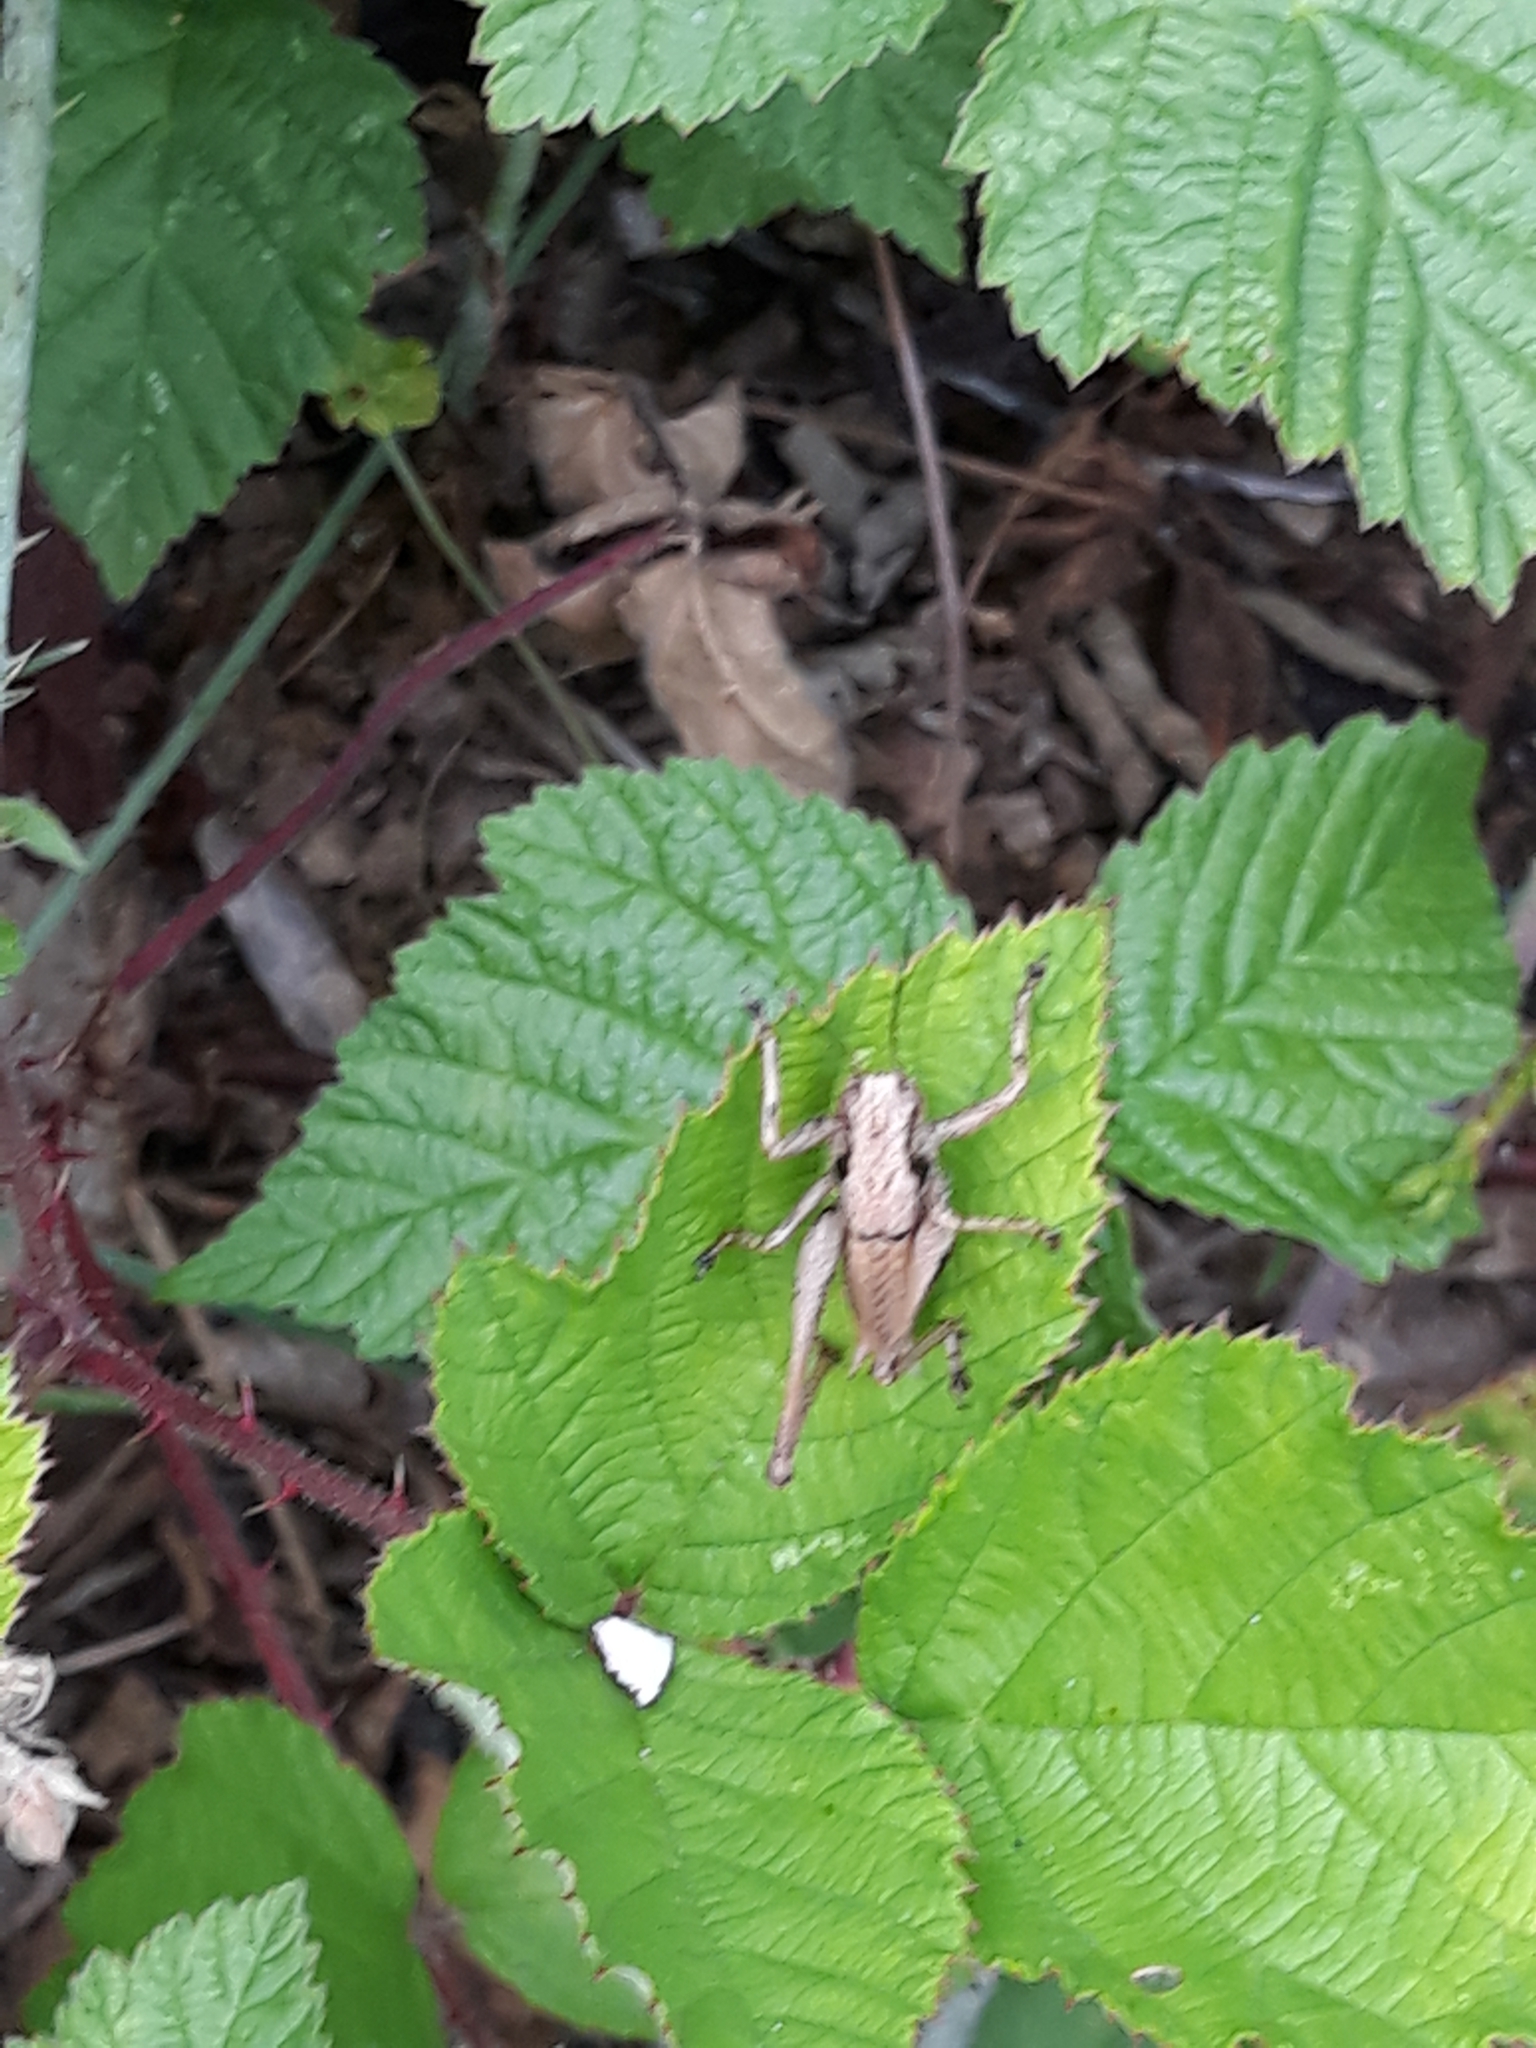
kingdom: Animalia
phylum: Arthropoda
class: Insecta
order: Orthoptera
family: Tettigoniidae
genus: Pholidoptera
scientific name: Pholidoptera griseoaptera
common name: Dark bush-cricket
